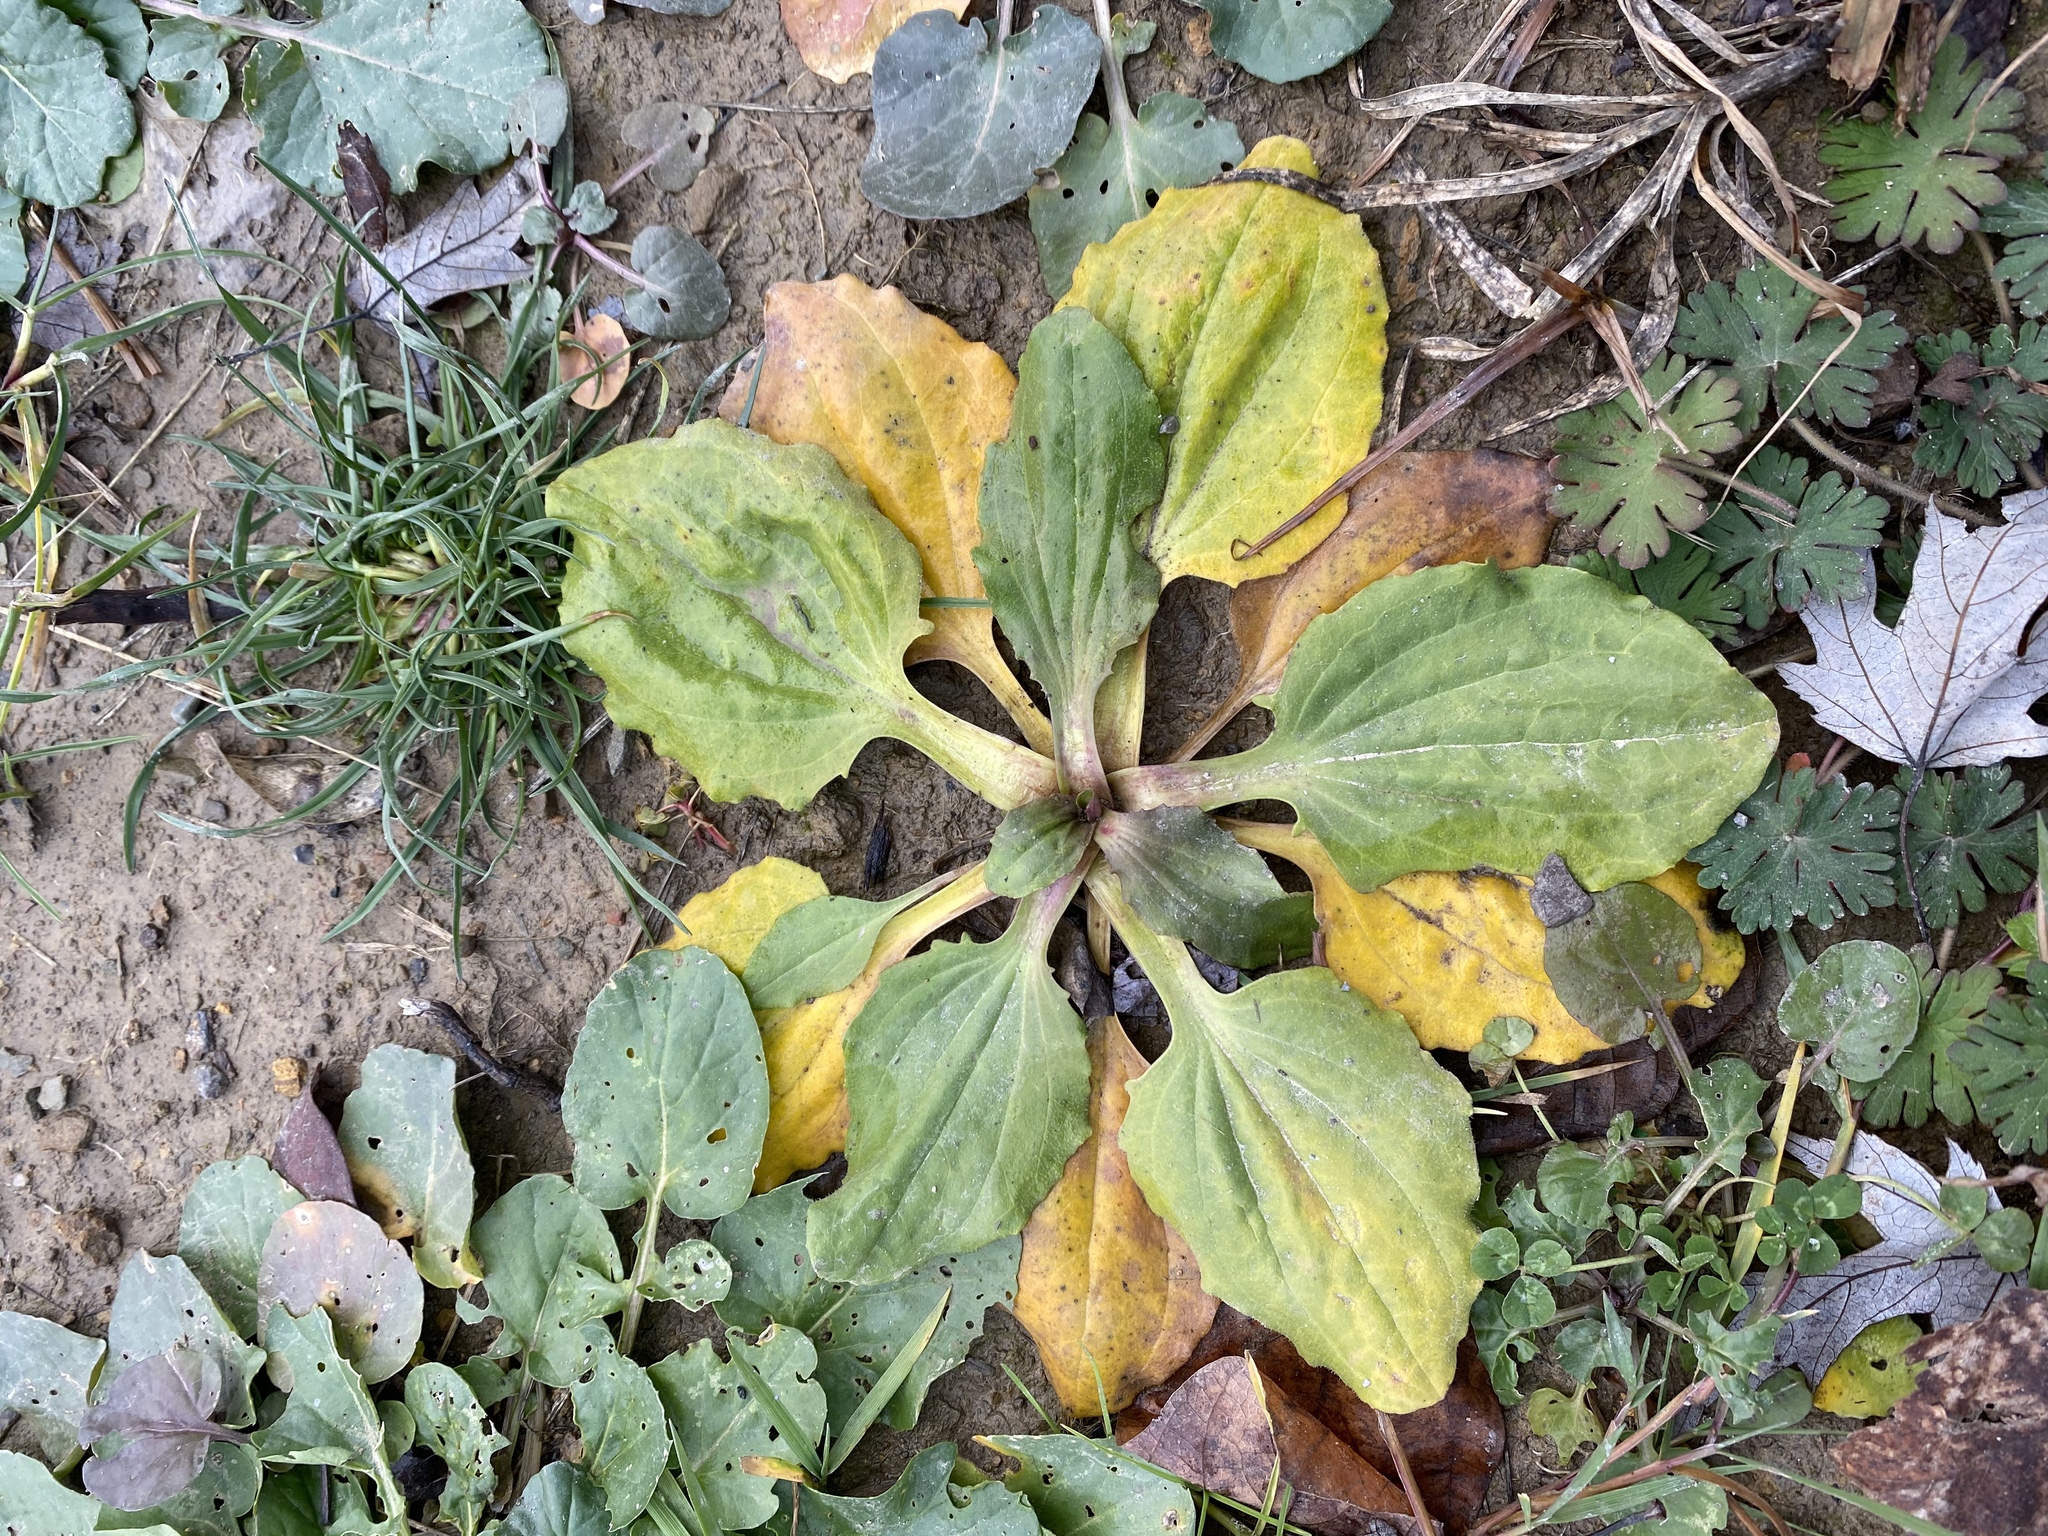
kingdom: Plantae
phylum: Tracheophyta
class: Magnoliopsida
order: Lamiales
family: Plantaginaceae
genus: Plantago
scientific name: Plantago rugelii
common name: American plantain
